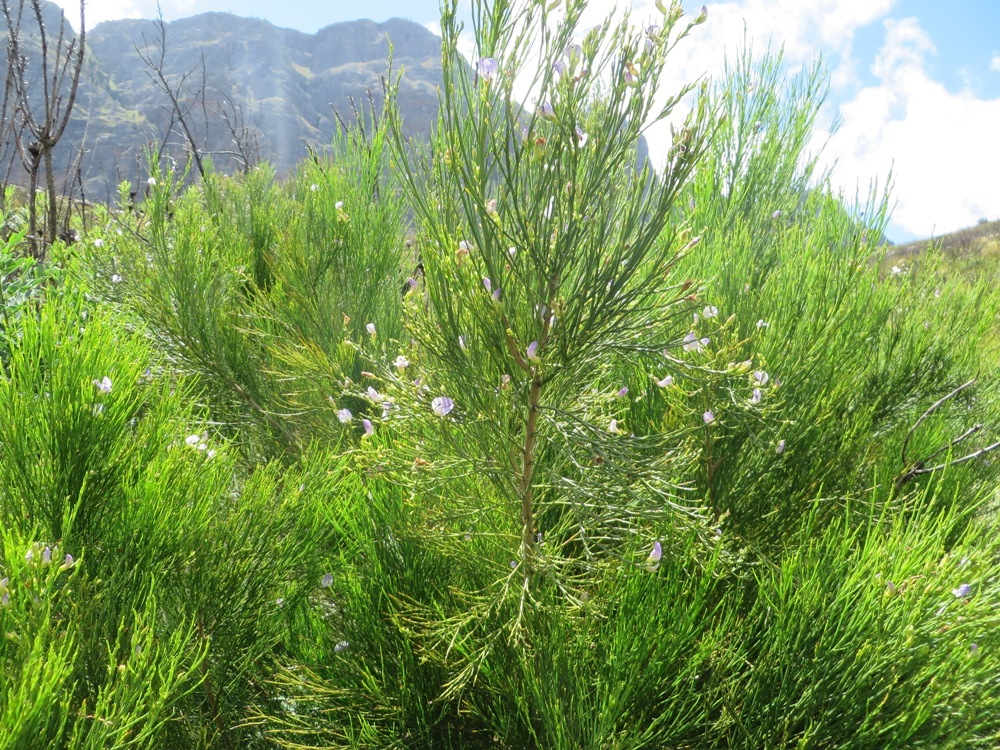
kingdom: Plantae
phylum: Tracheophyta
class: Magnoliopsida
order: Fabales
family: Fabaceae
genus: Psoralea
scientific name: Psoralea aphylla
